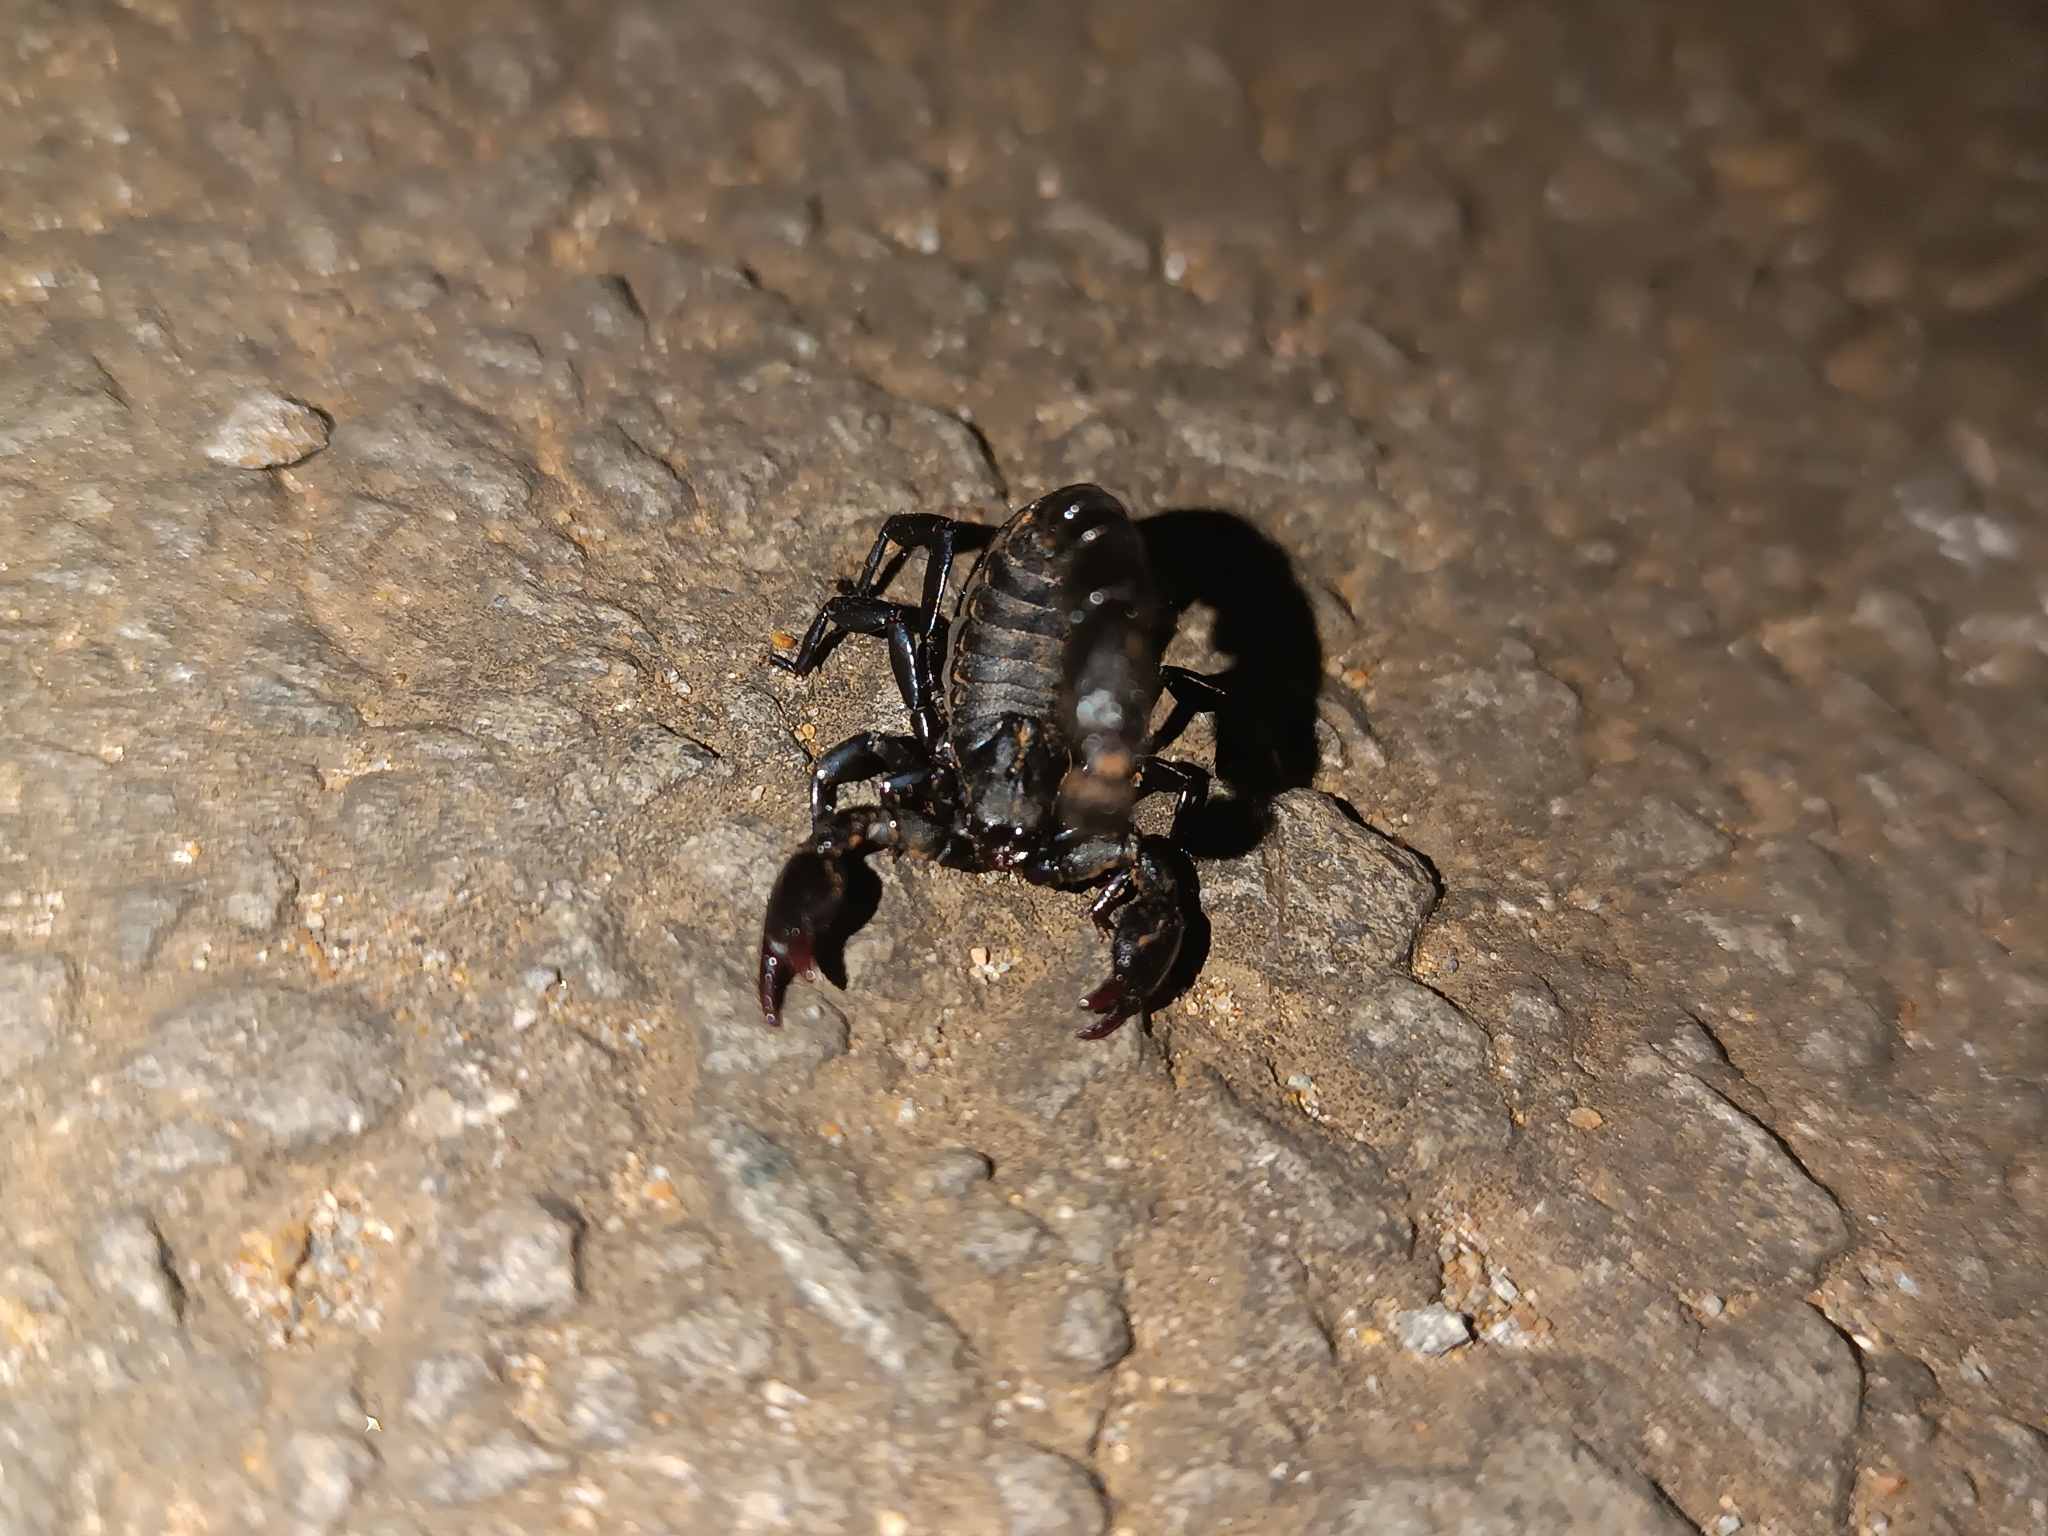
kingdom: Animalia
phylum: Arthropoda
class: Arachnida
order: Scorpiones
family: Bothriuridae
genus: Bothriurus
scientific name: Bothriurus bonariensis
